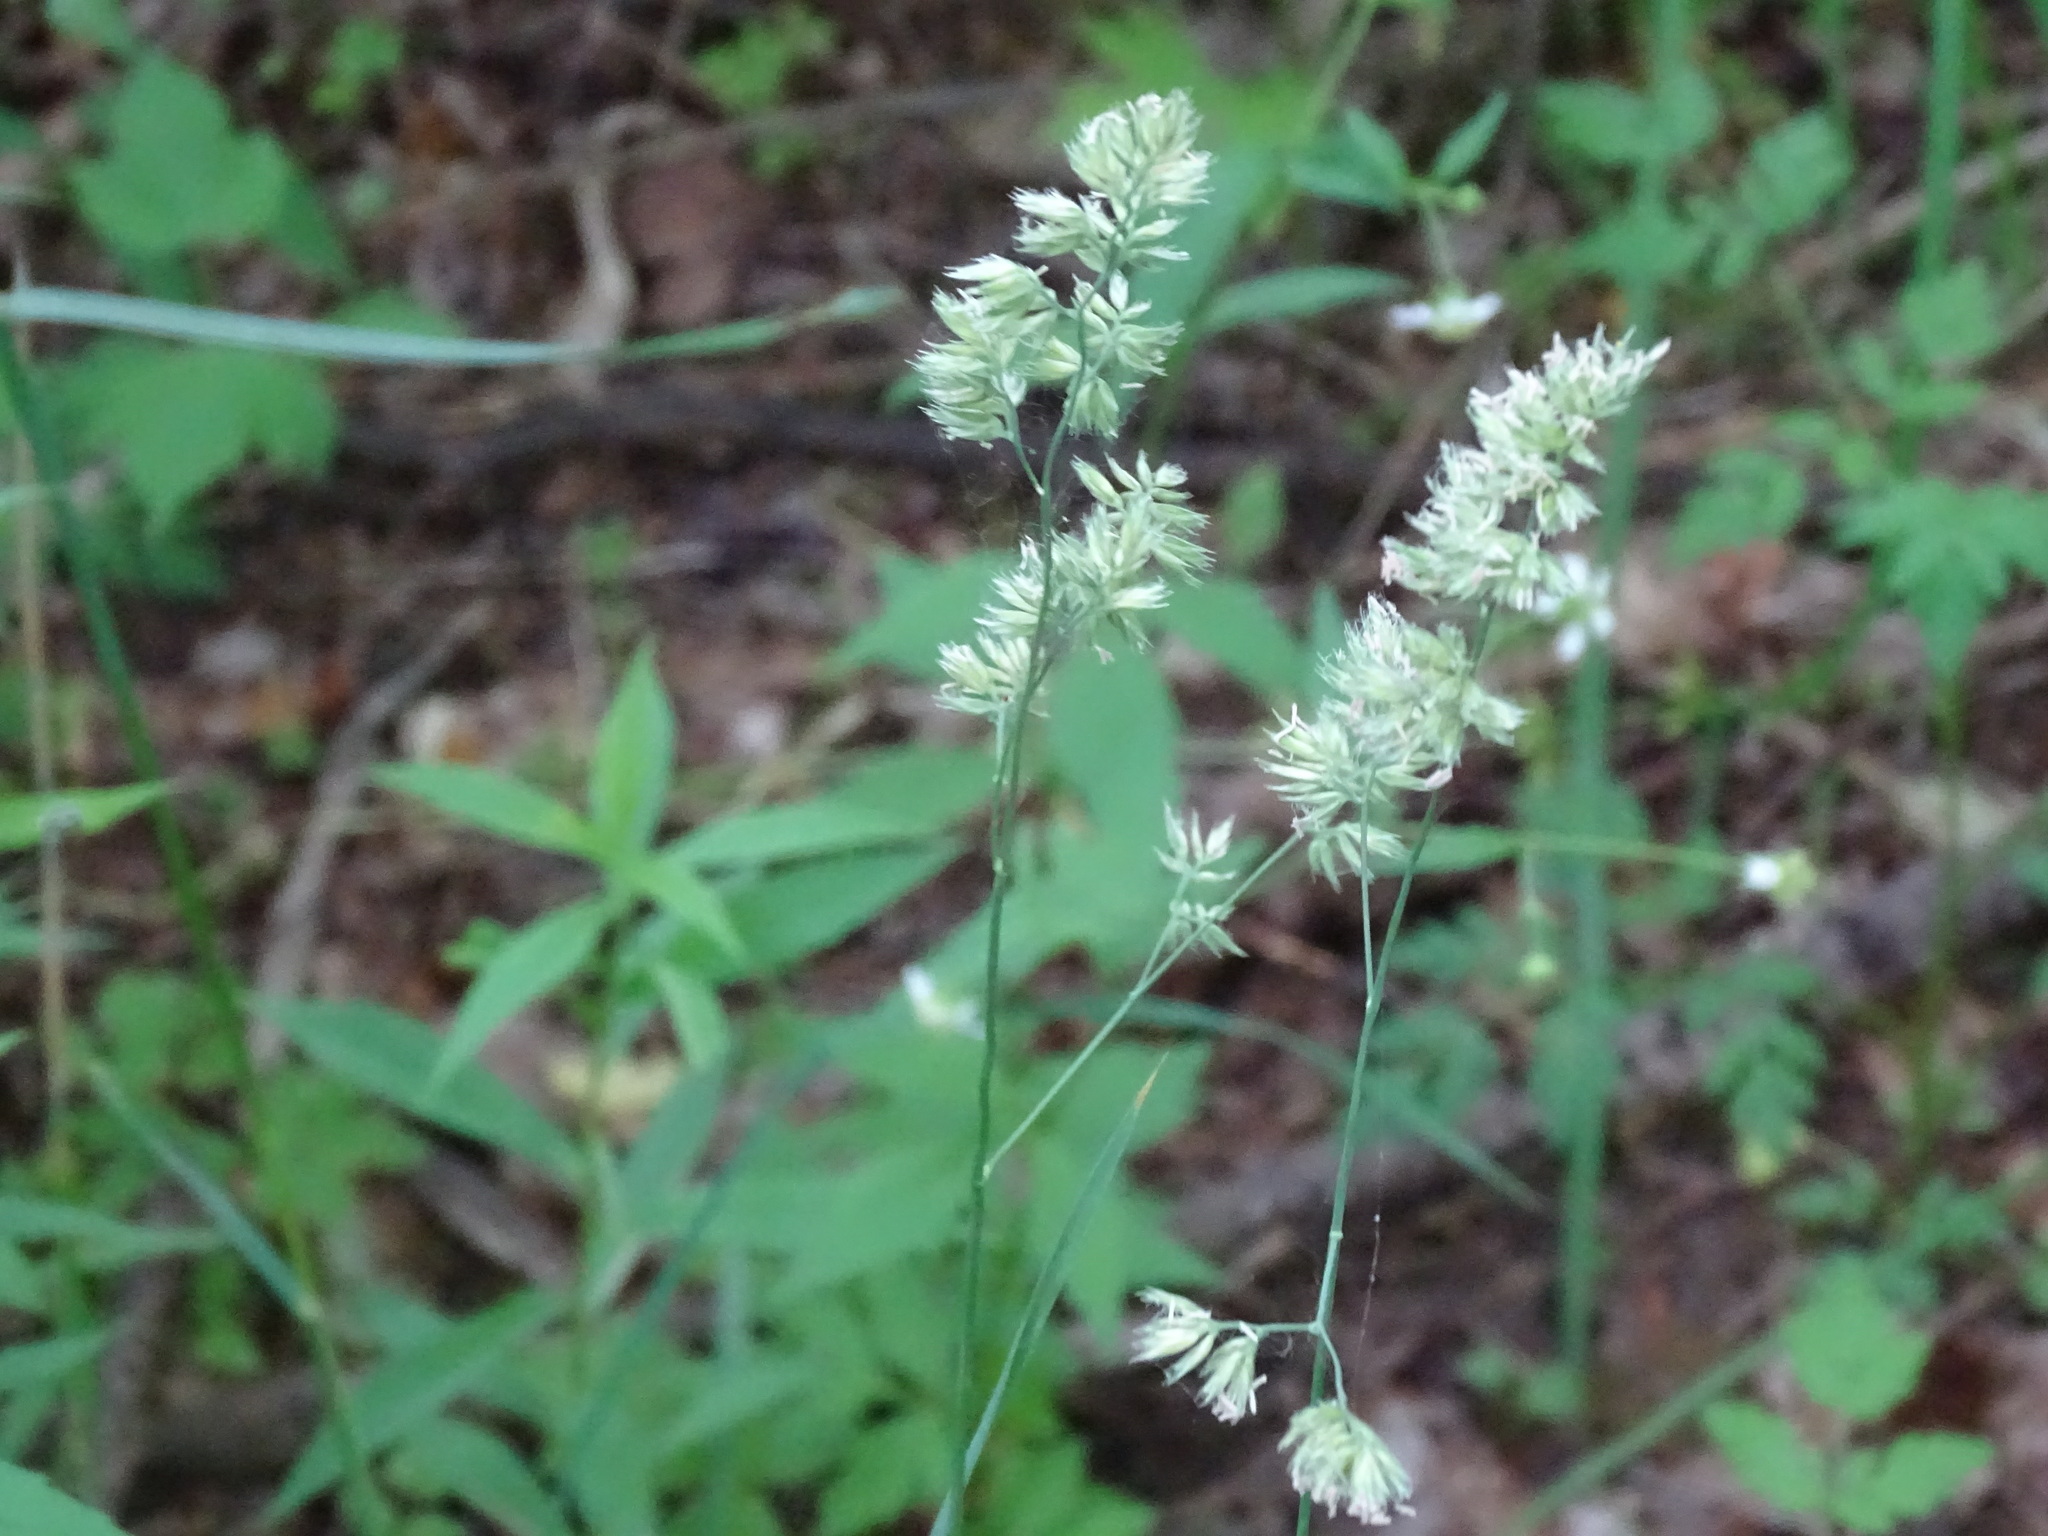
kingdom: Plantae
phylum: Tracheophyta
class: Liliopsida
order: Poales
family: Poaceae
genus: Dactylis
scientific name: Dactylis glomerata
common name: Orchardgrass
